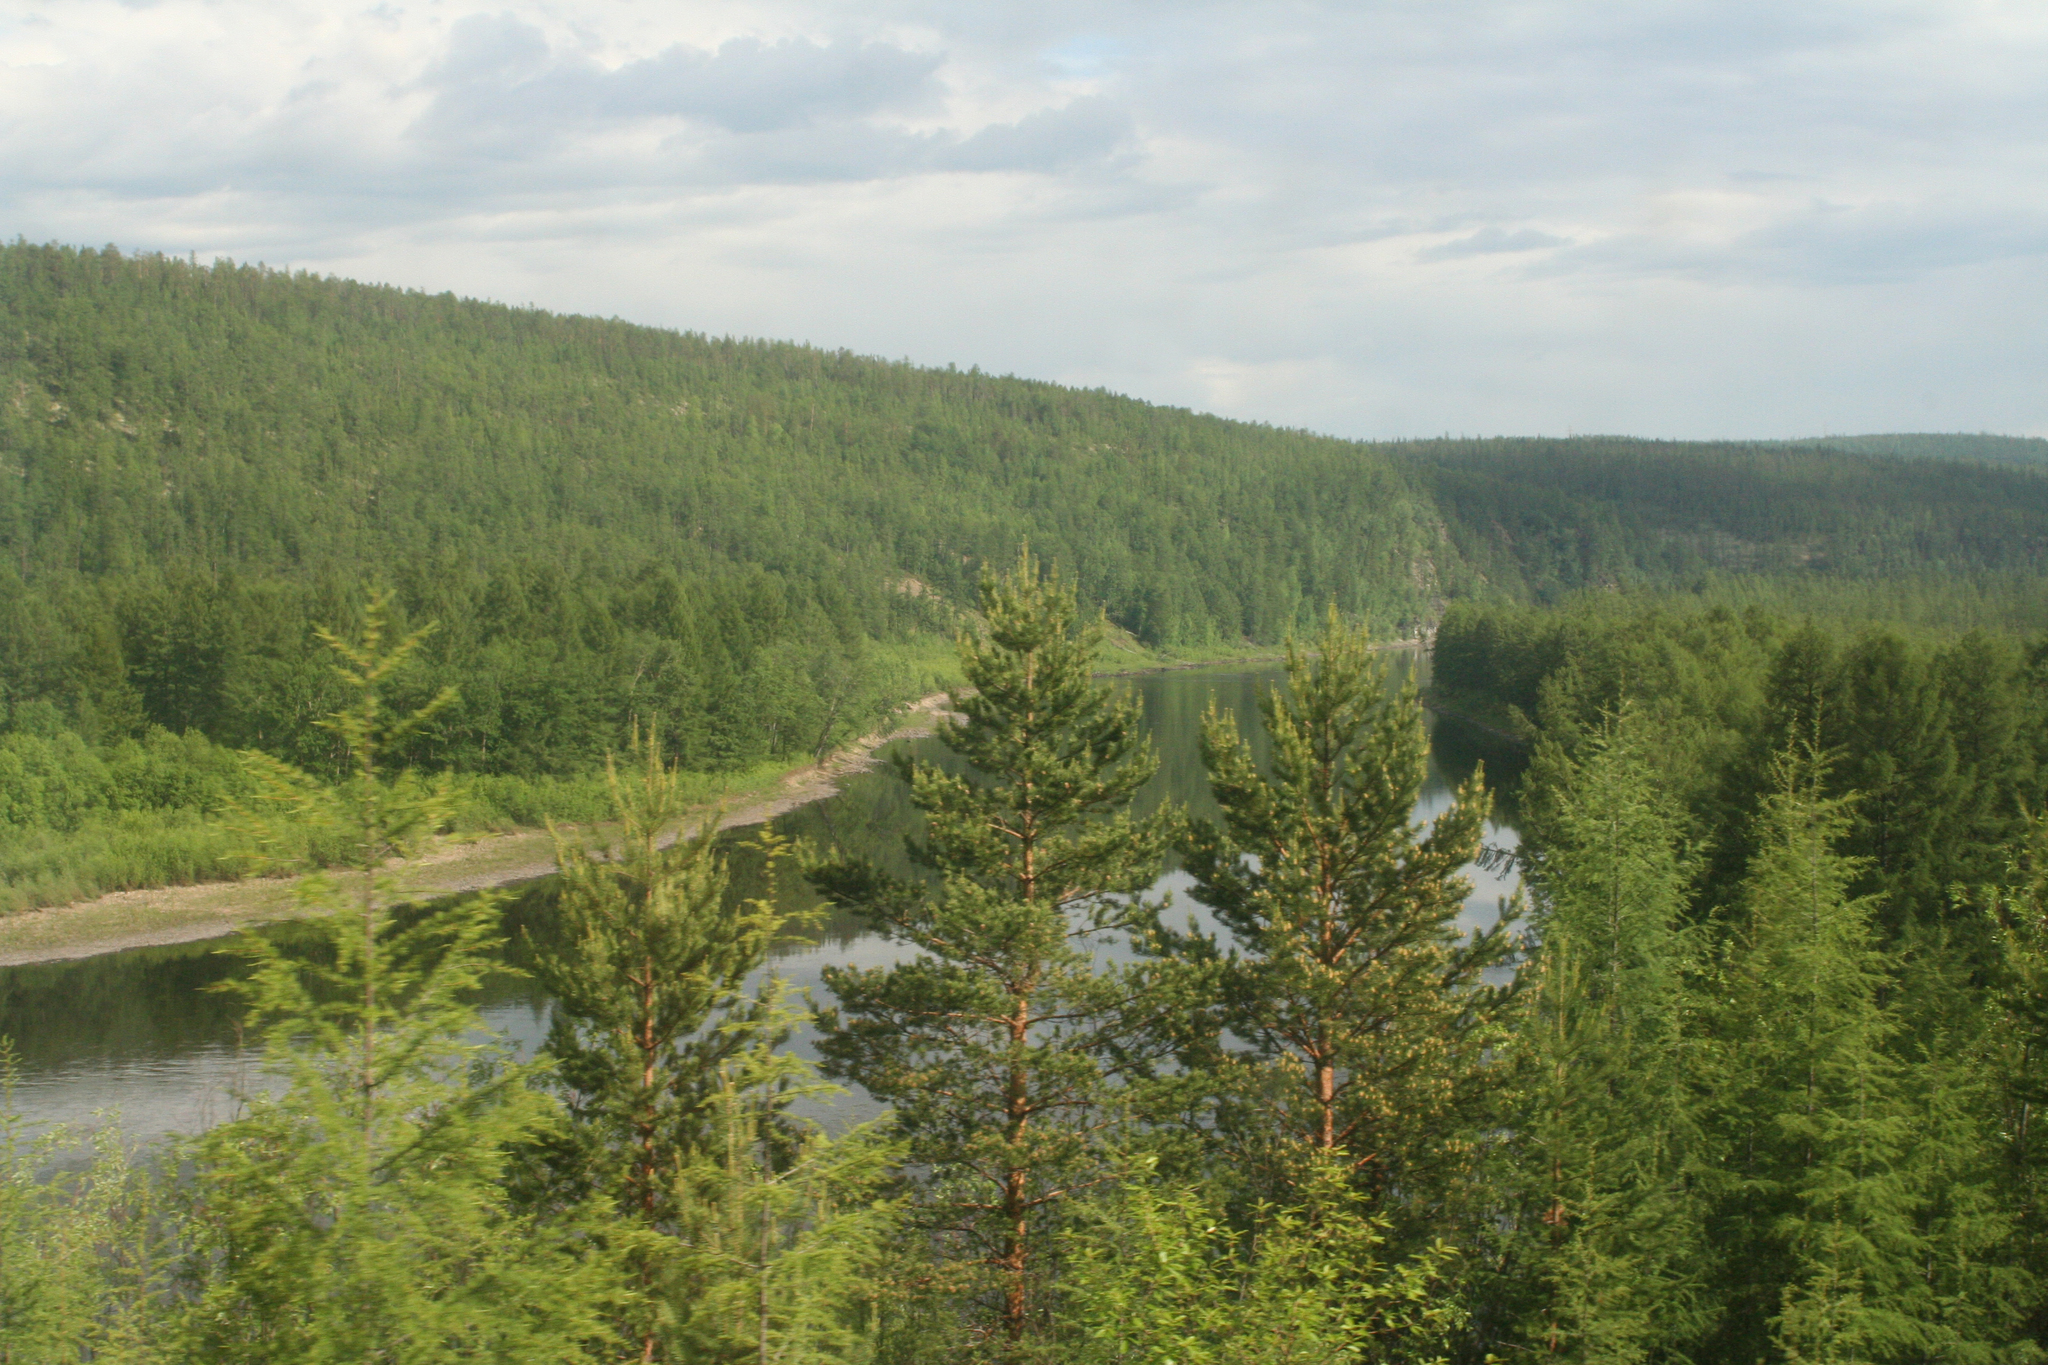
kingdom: Plantae
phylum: Tracheophyta
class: Pinopsida
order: Pinales
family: Pinaceae
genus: Pinus
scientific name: Pinus sylvestris
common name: Scots pine
